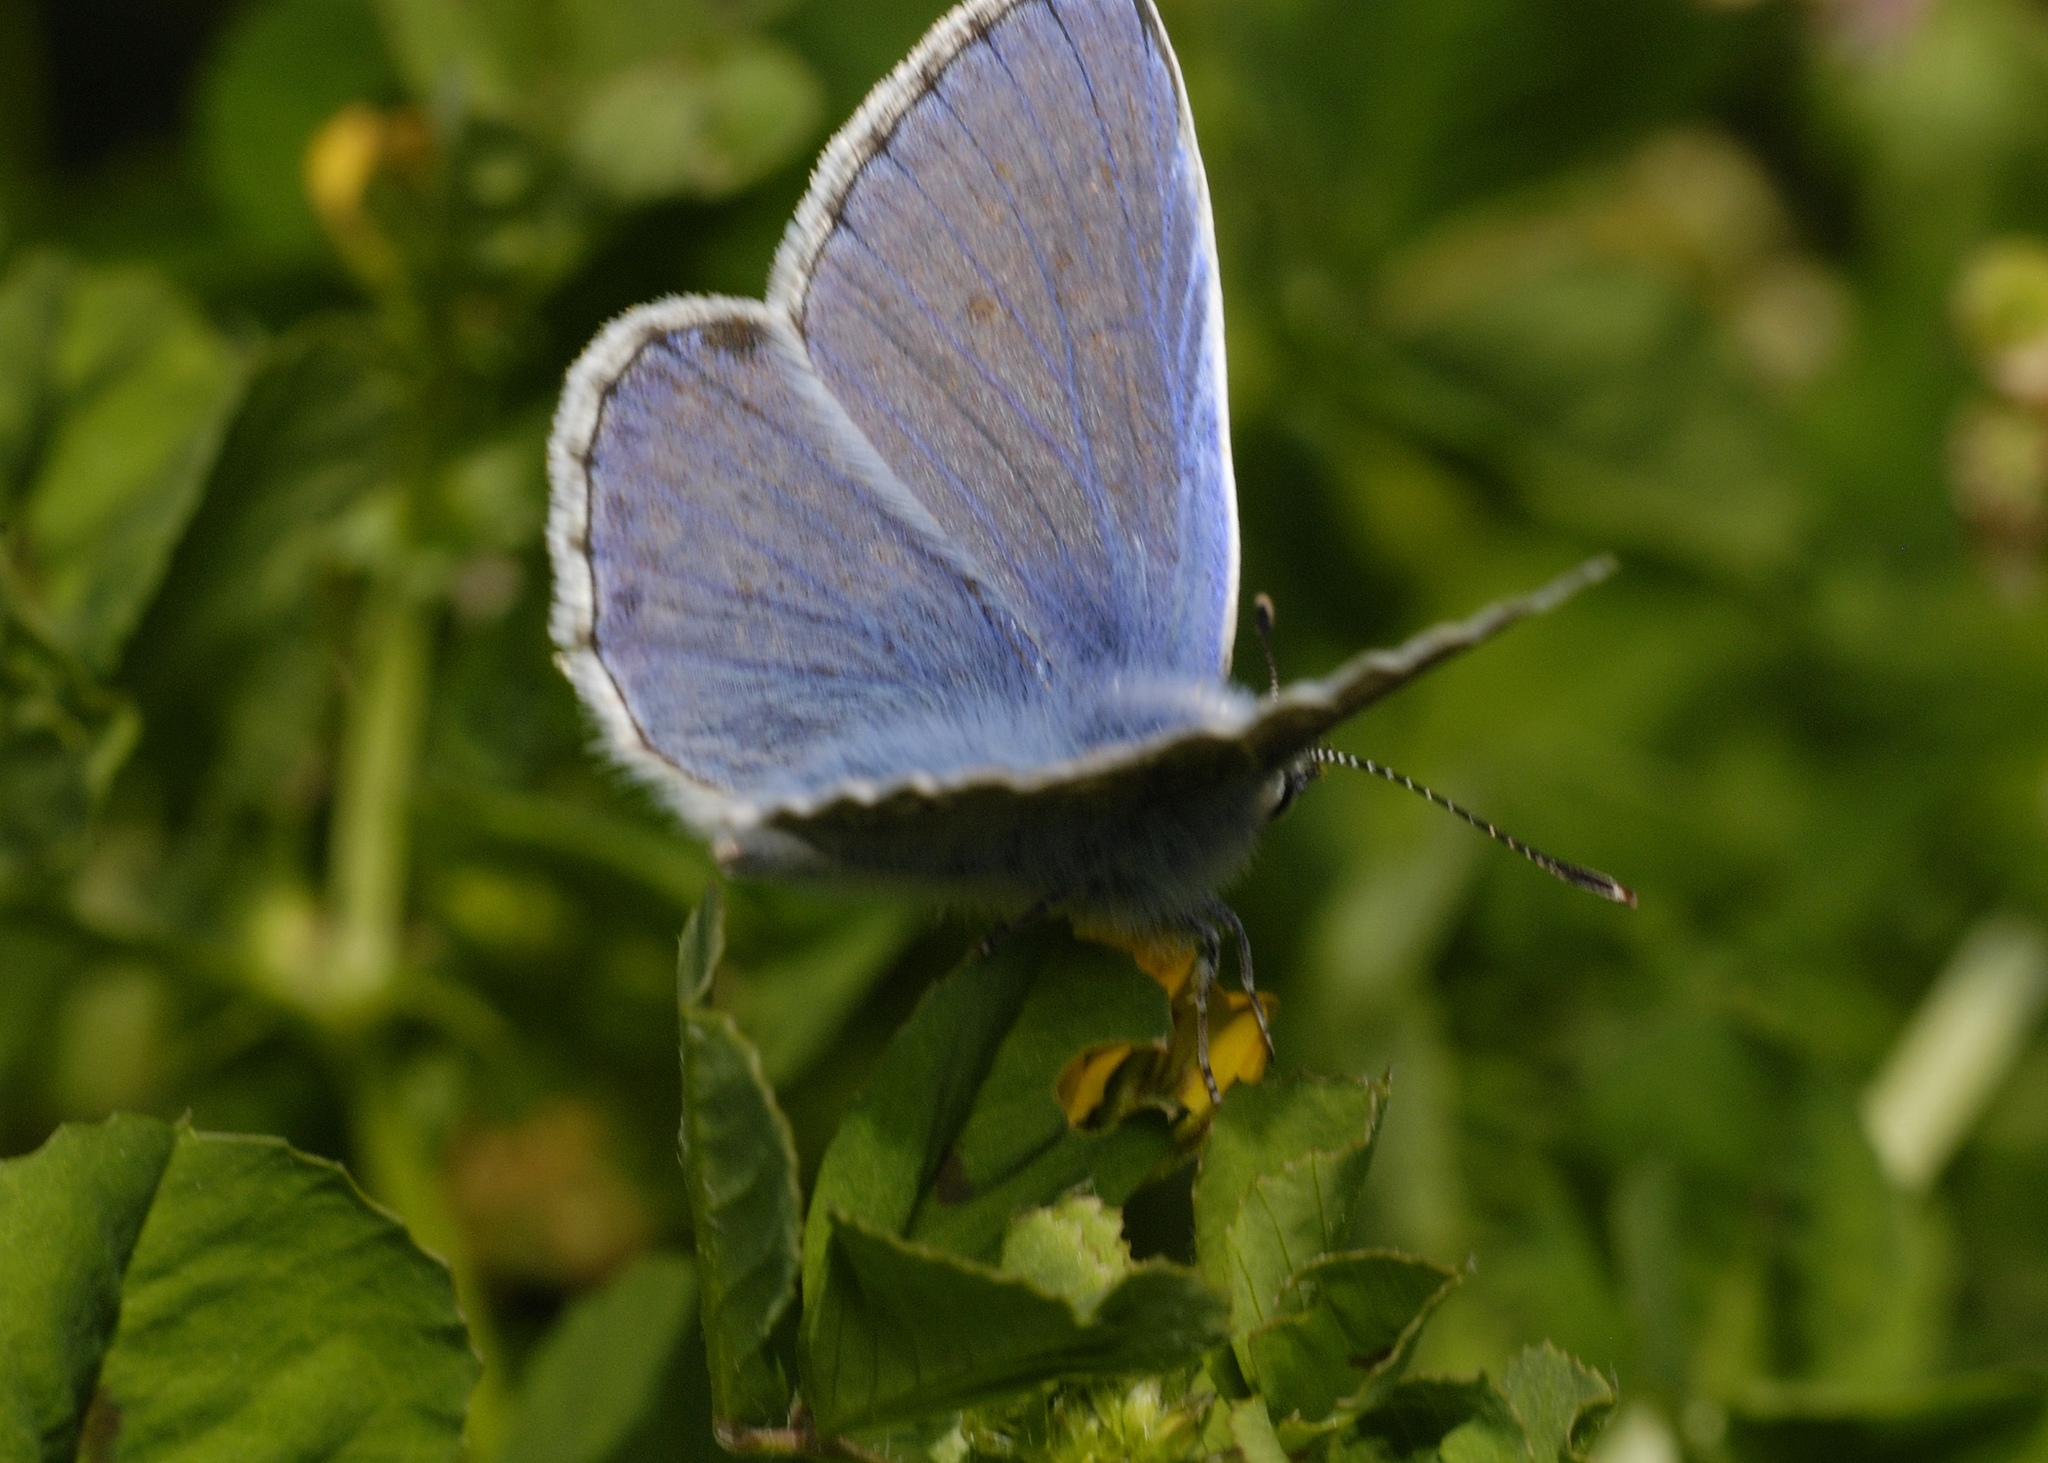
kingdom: Animalia
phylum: Arthropoda
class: Insecta
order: Lepidoptera
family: Lycaenidae
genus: Polyommatus
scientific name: Polyommatus icarus
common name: Common blue
